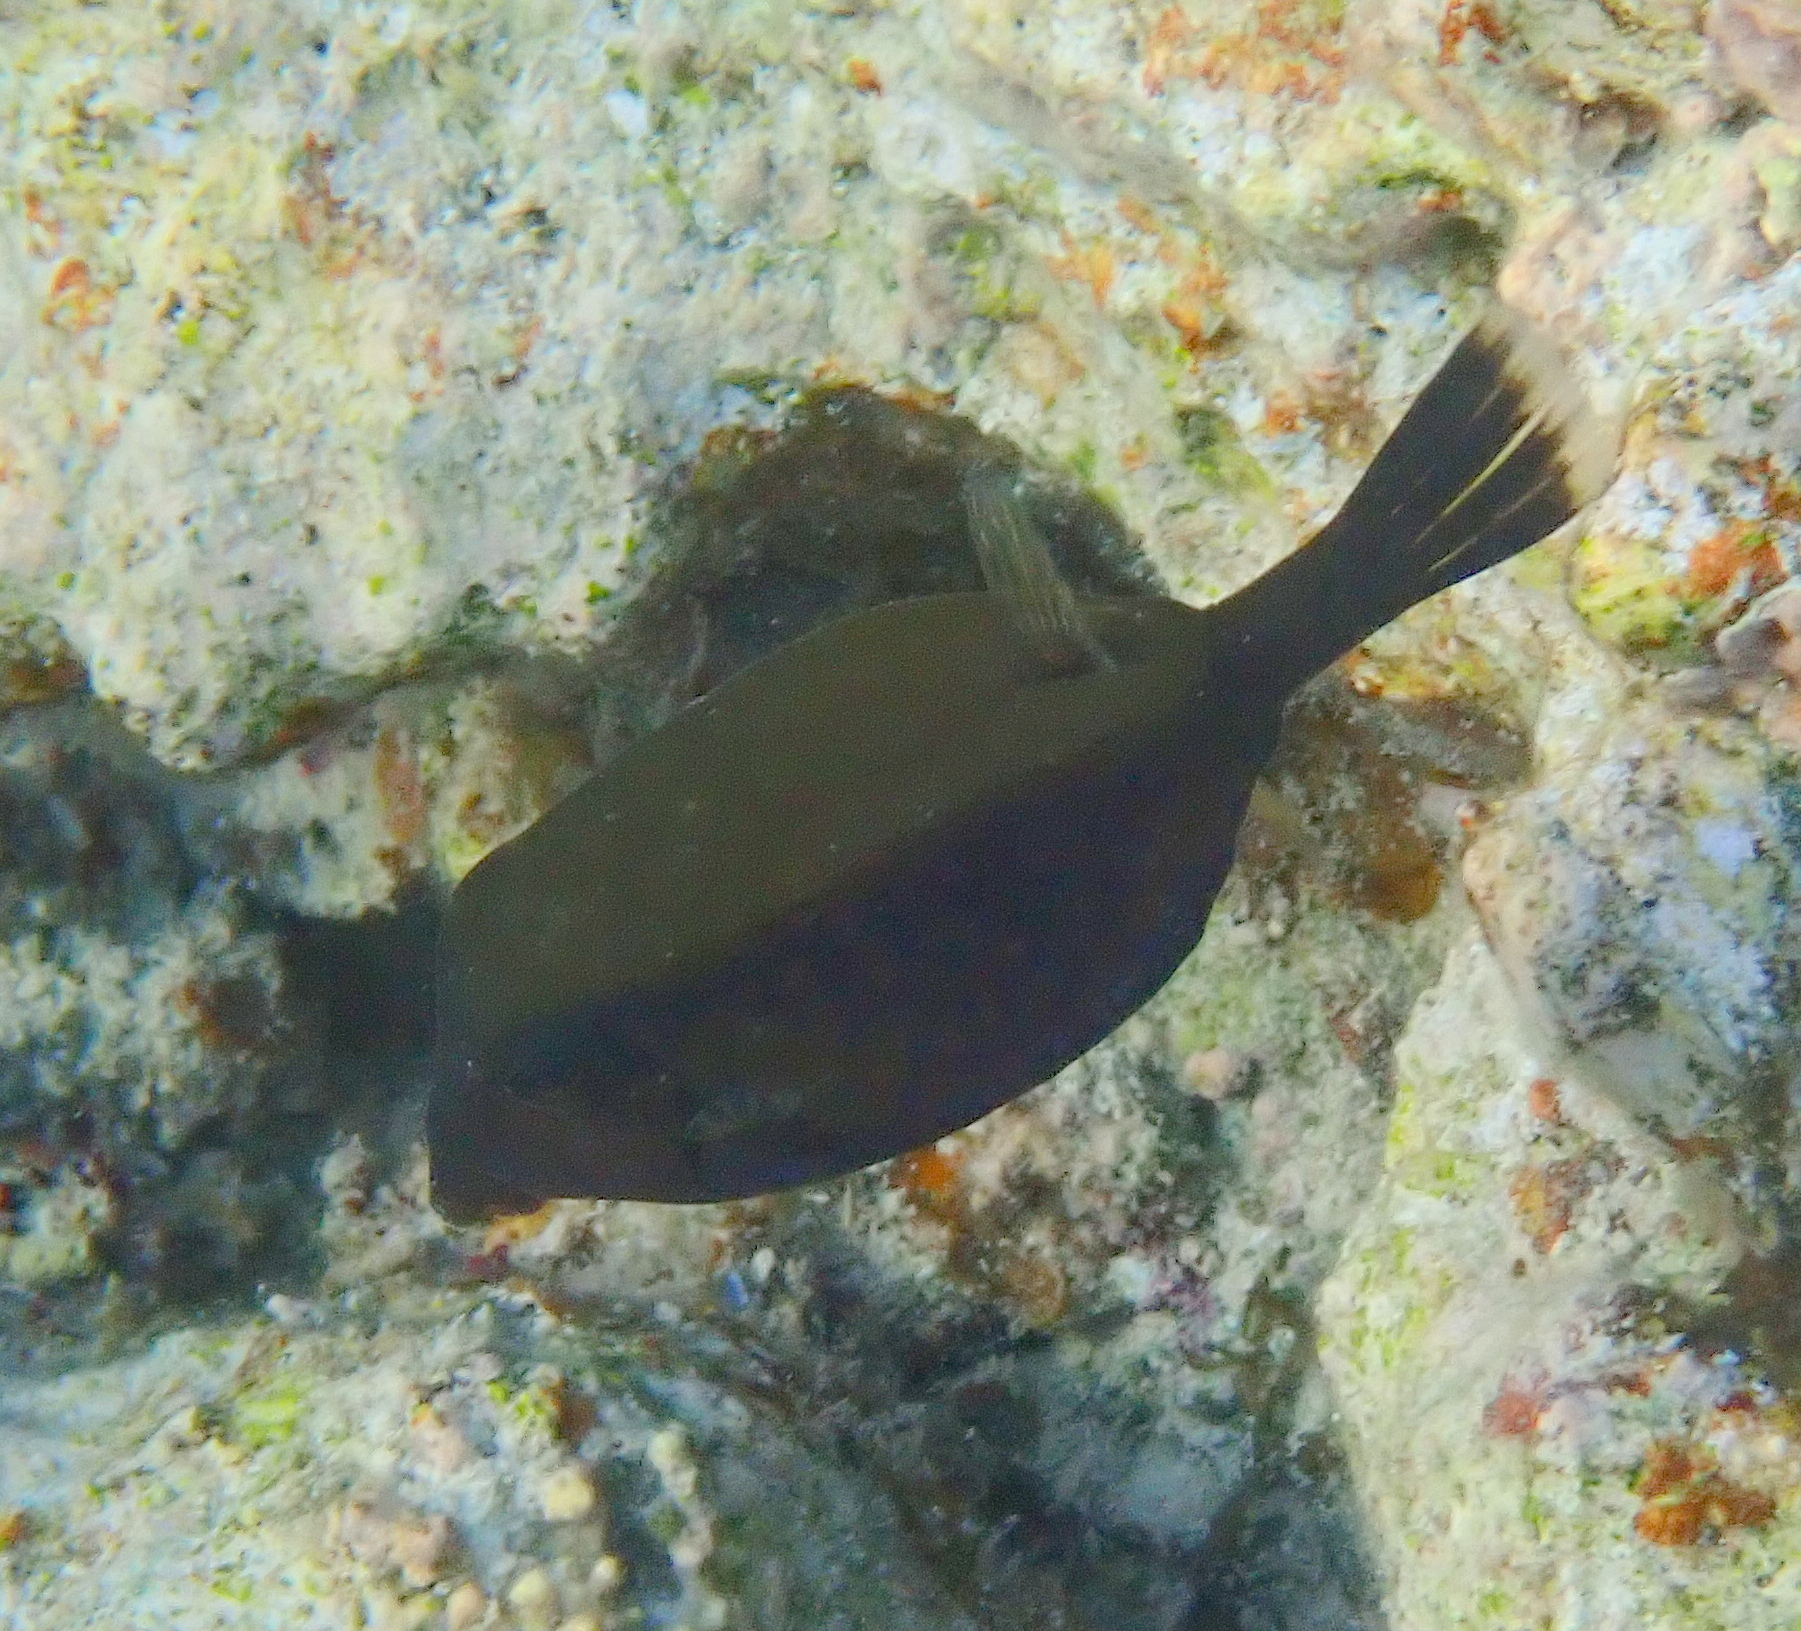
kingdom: Animalia
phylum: Chordata
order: Tetraodontiformes
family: Ostraciidae
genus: Ostracion
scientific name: Ostracion cyanurus
